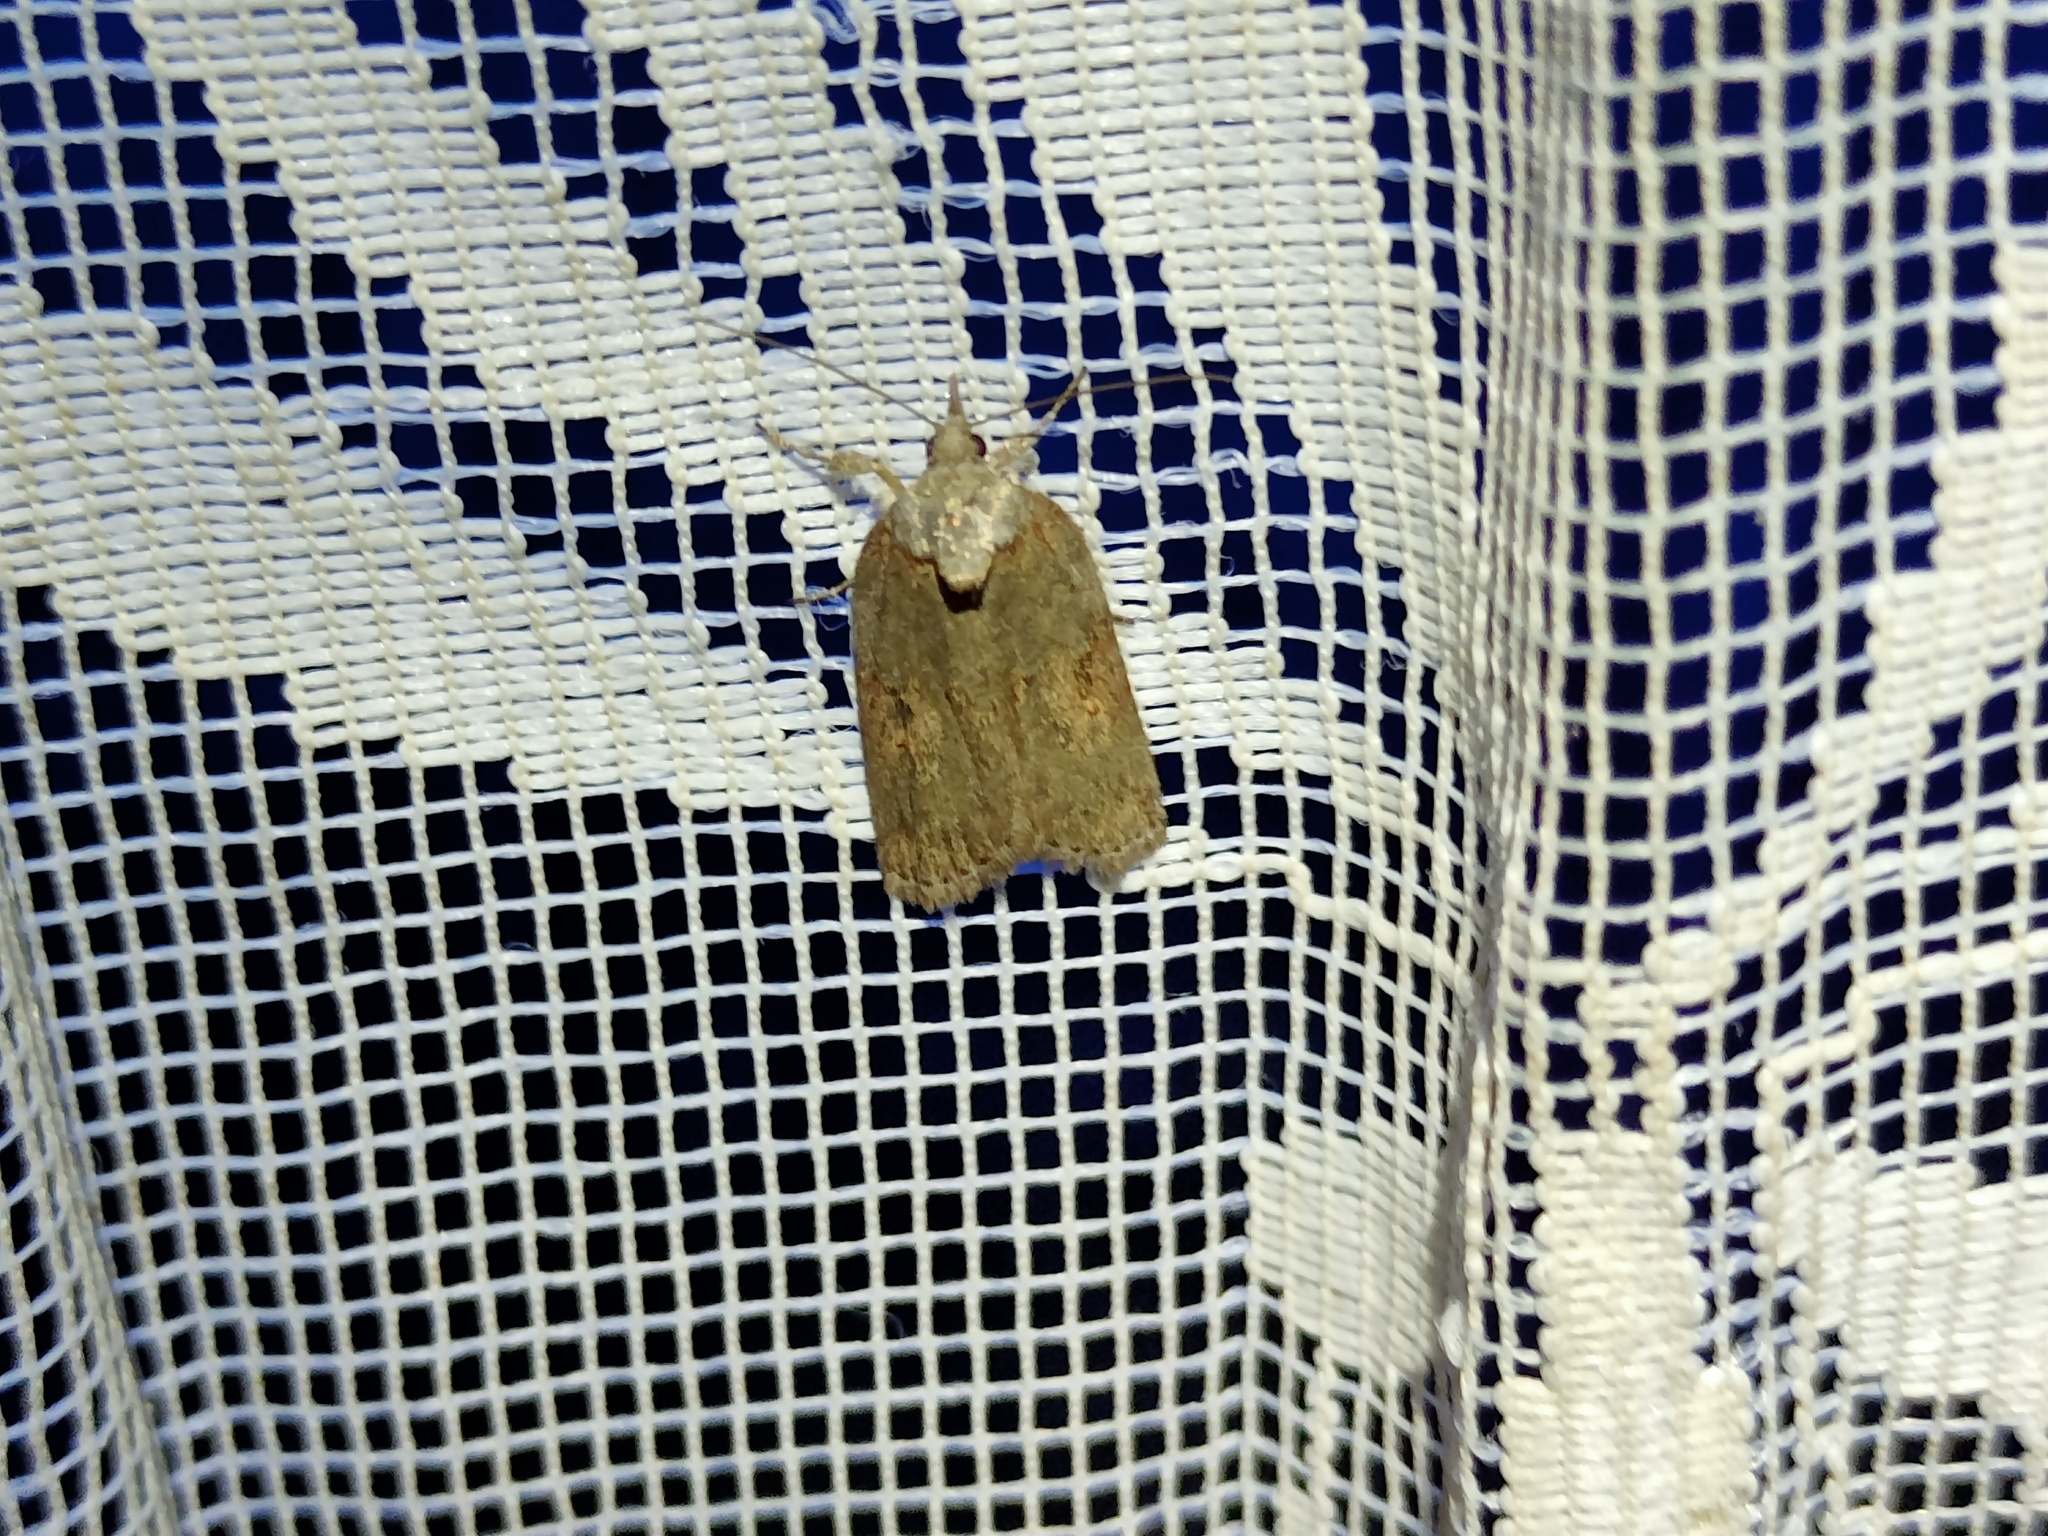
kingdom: Animalia
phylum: Arthropoda
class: Insecta
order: Lepidoptera
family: Nolidae
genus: Nycteola
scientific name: Nycteola revayana
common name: Oak nycteoline
